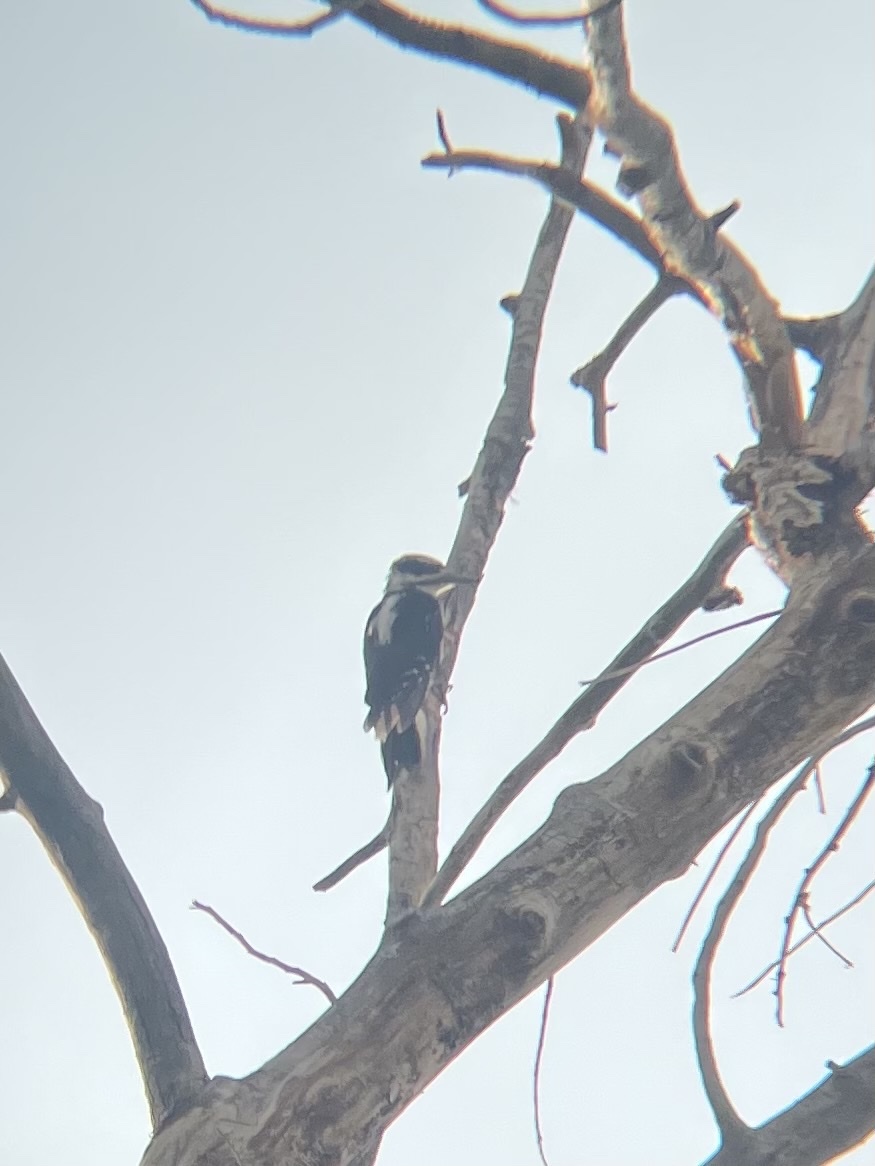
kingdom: Animalia
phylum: Chordata
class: Aves
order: Piciformes
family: Picidae
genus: Leuconotopicus
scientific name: Leuconotopicus villosus
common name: Hairy woodpecker
